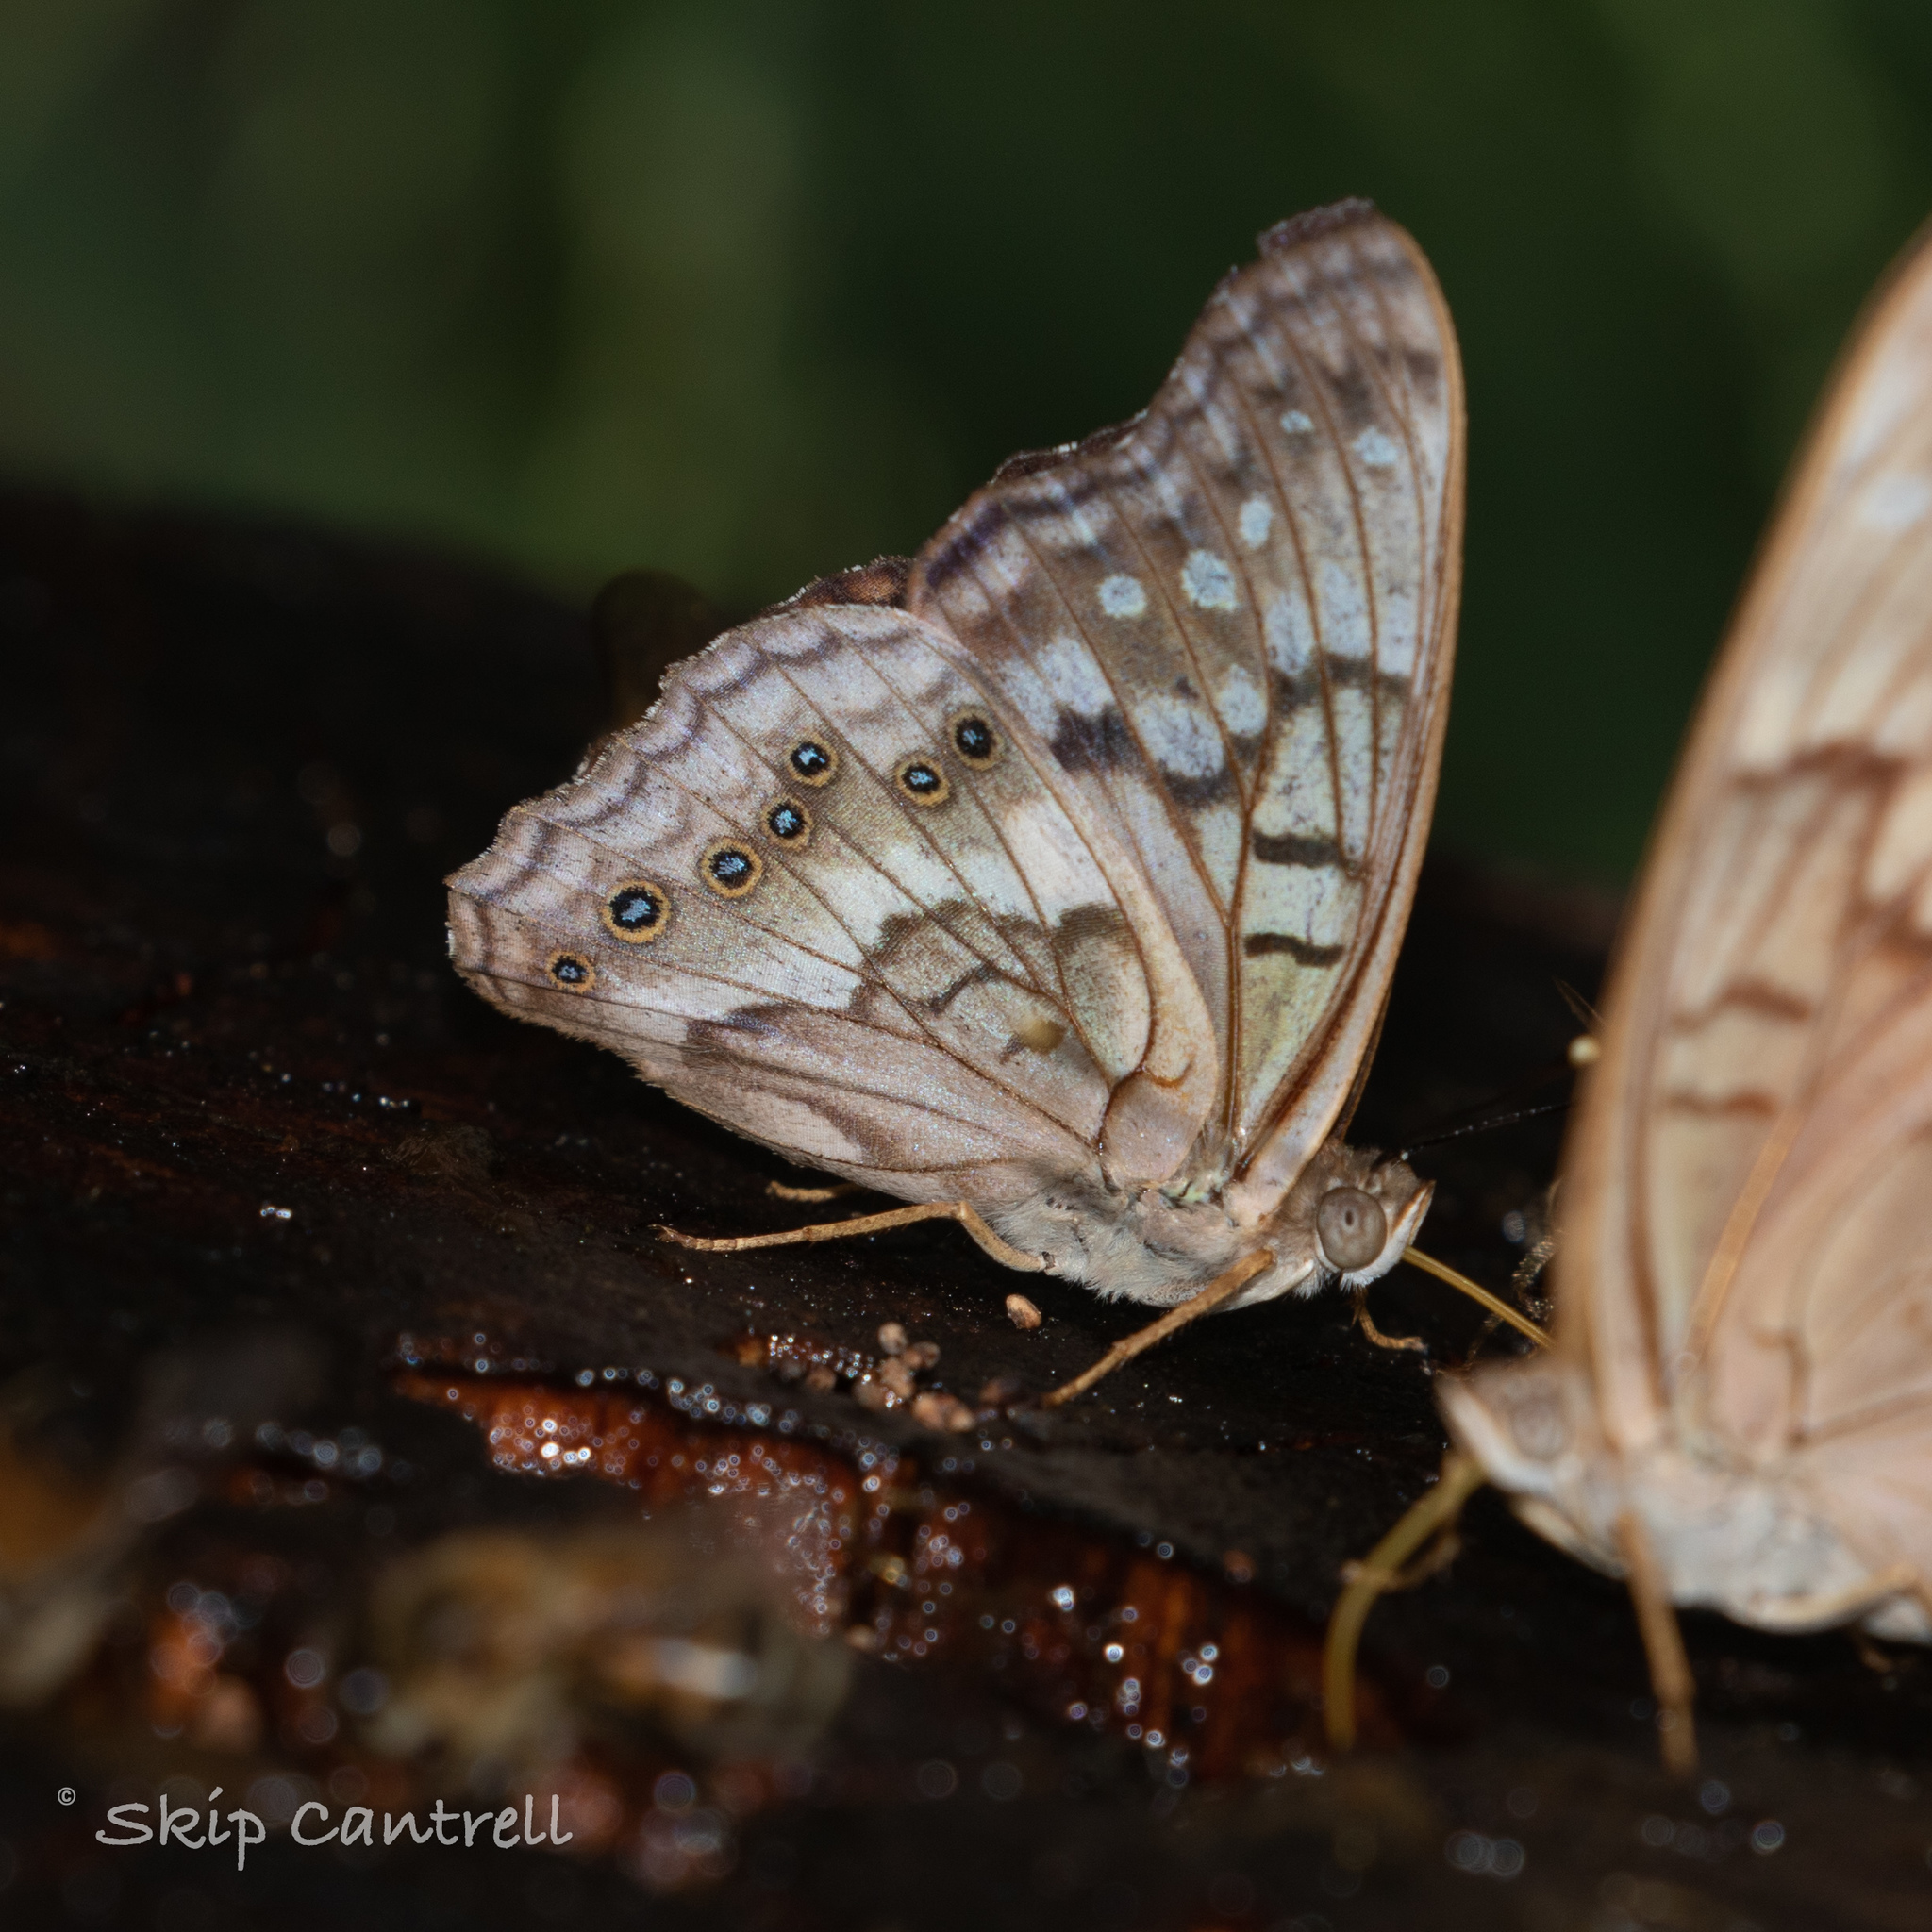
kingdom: Animalia
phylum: Arthropoda
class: Insecta
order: Lepidoptera
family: Nymphalidae
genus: Asterocampa
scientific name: Asterocampa clyton
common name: Tawny emperor
